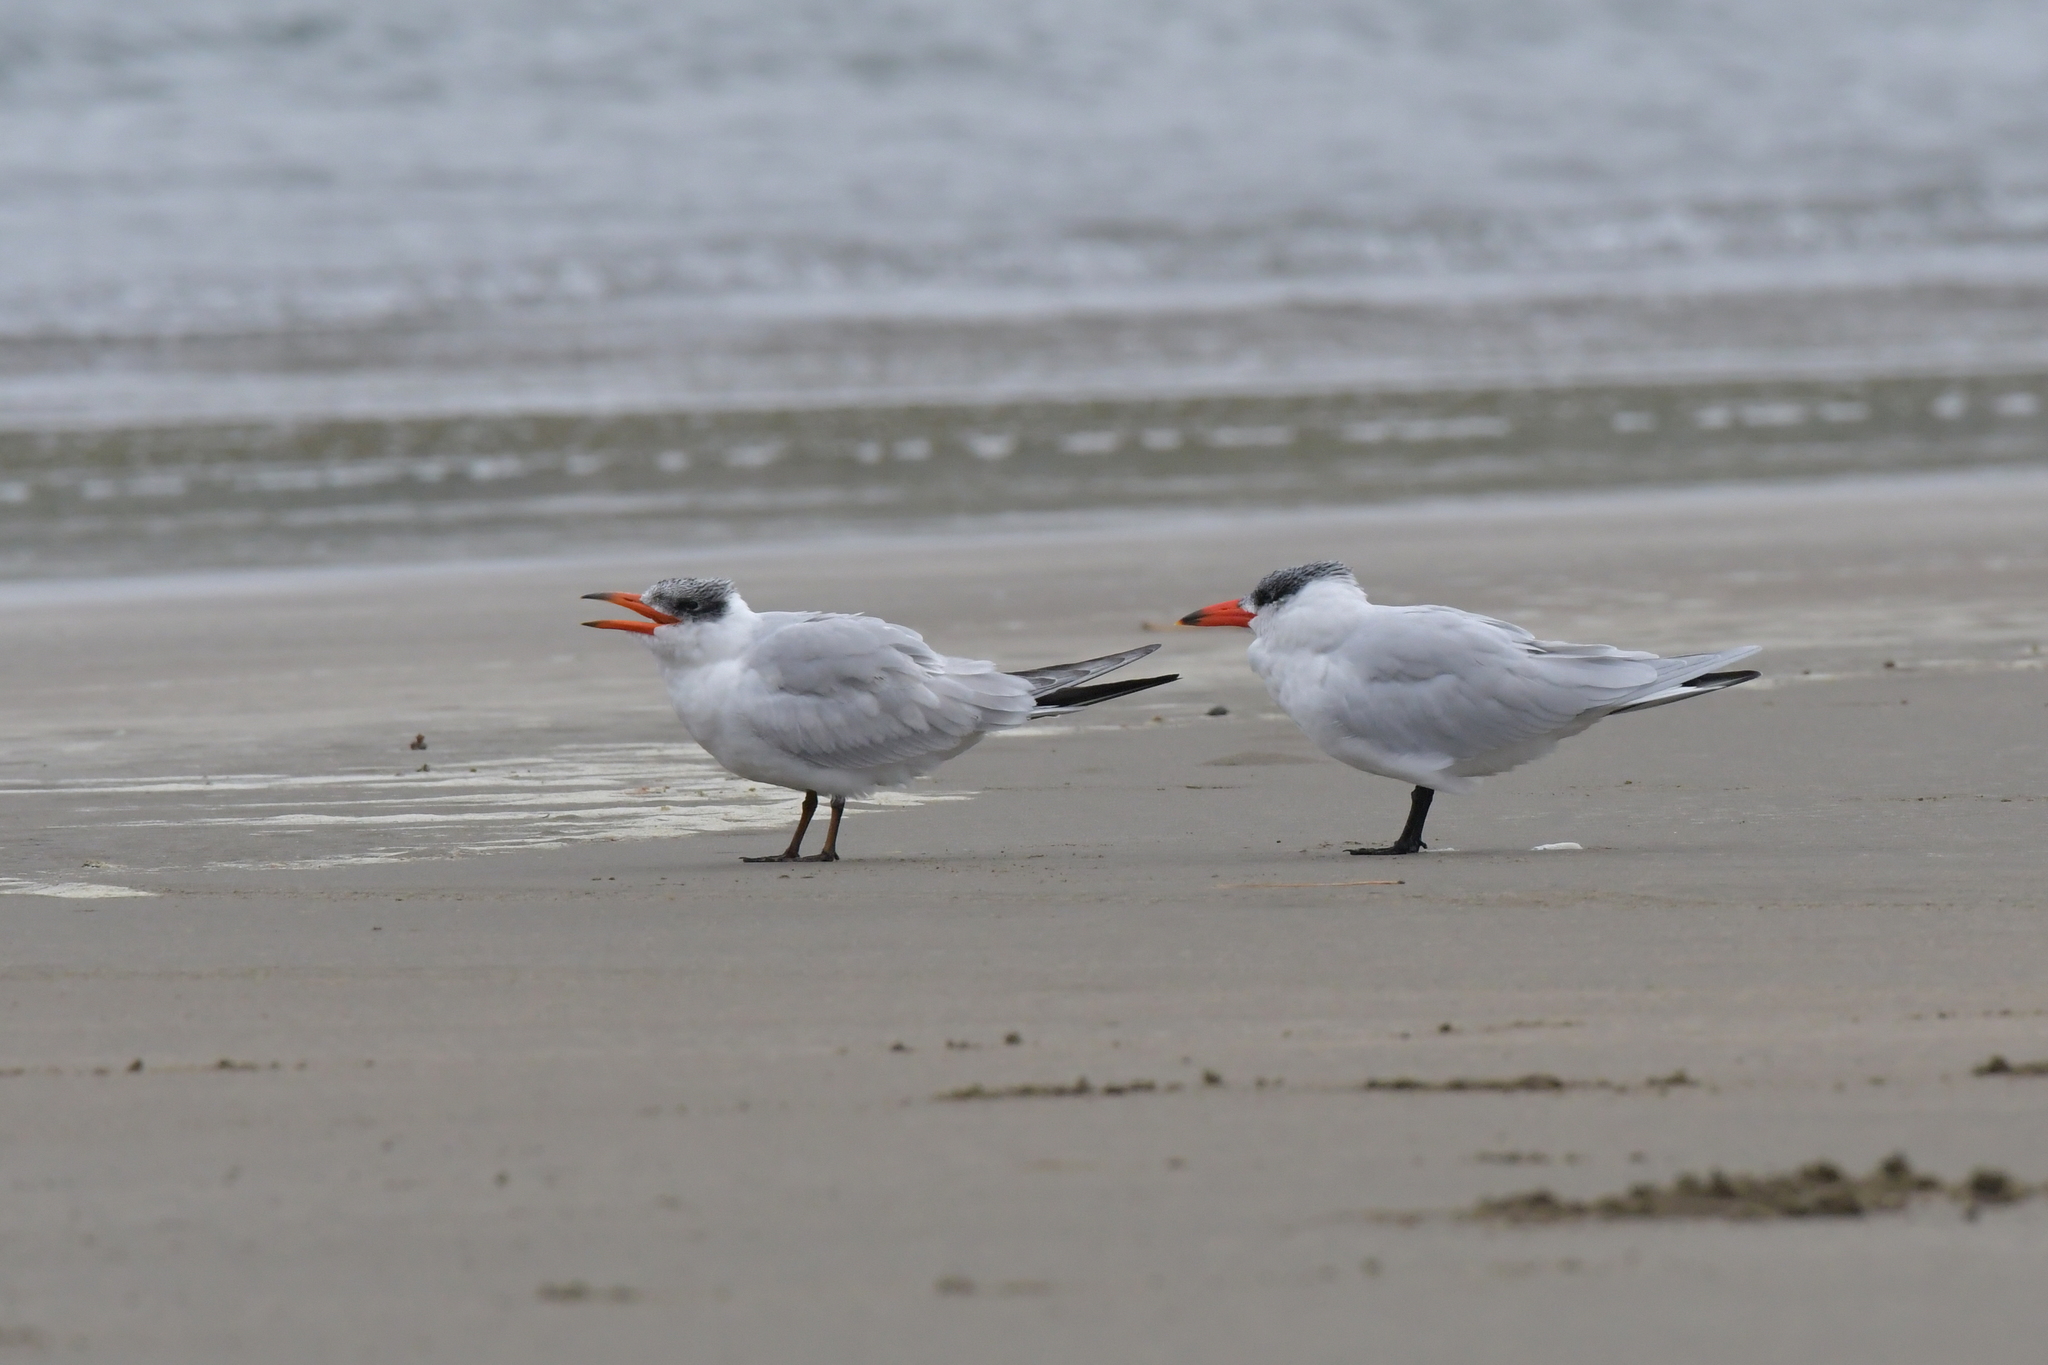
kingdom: Animalia
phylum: Chordata
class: Aves
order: Charadriiformes
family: Laridae
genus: Hydroprogne
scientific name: Hydroprogne caspia
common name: Caspian tern
